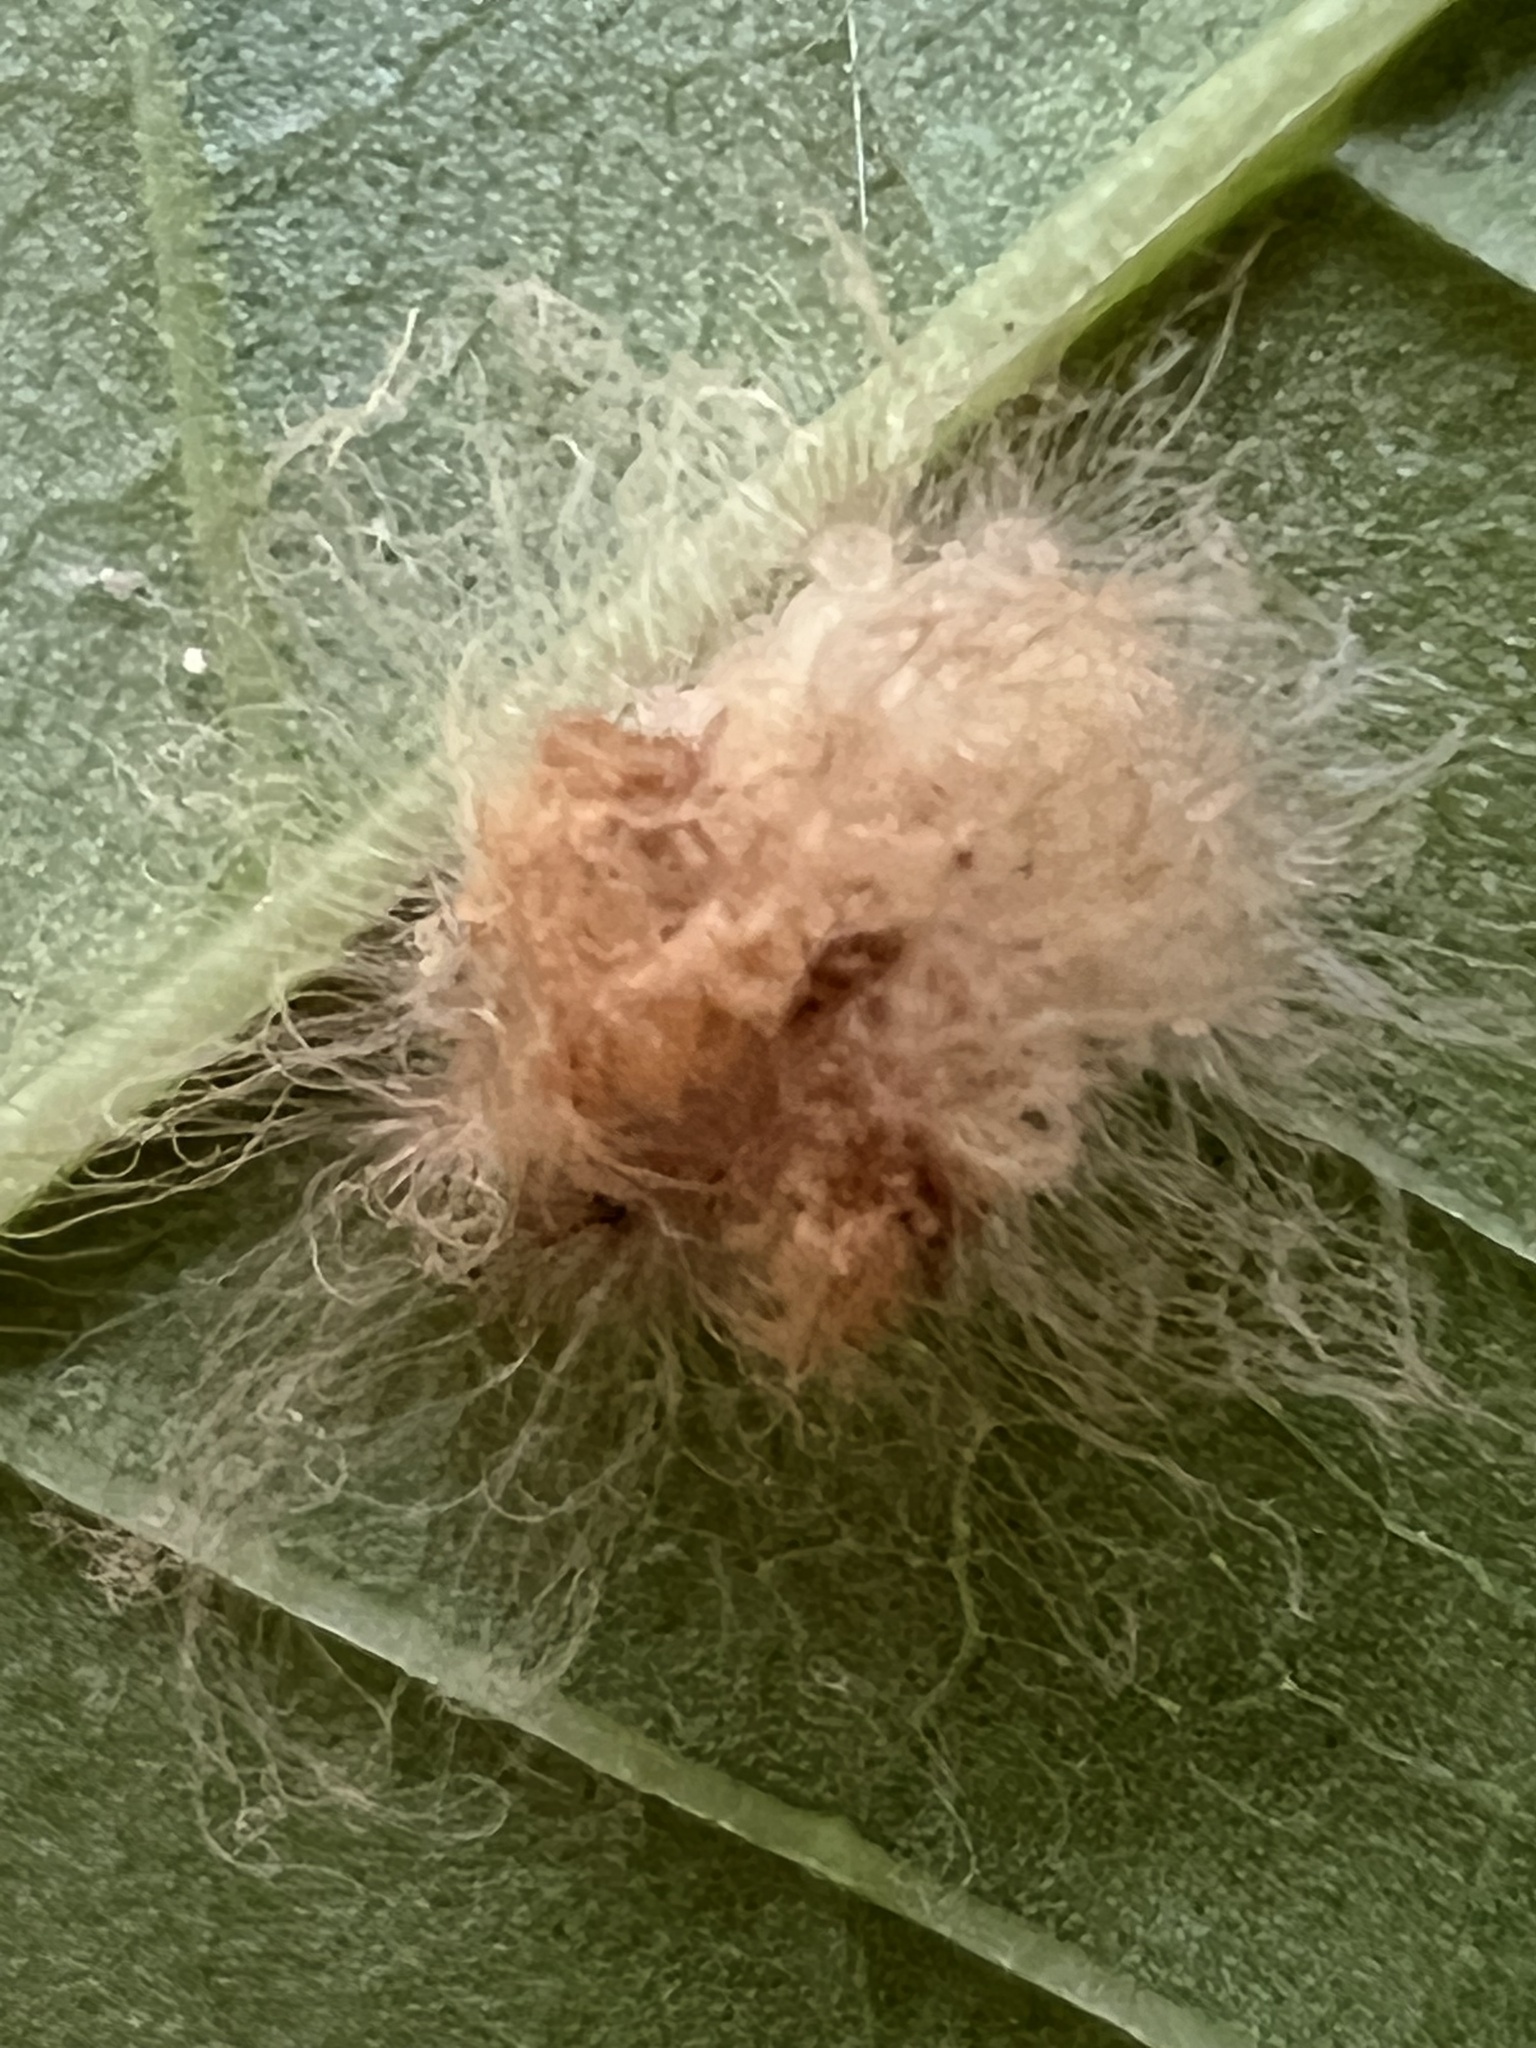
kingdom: Animalia
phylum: Arthropoda
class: Insecta
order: Lepidoptera
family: Megalopygidae
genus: Megalopyge
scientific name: Megalopyge opercularis
